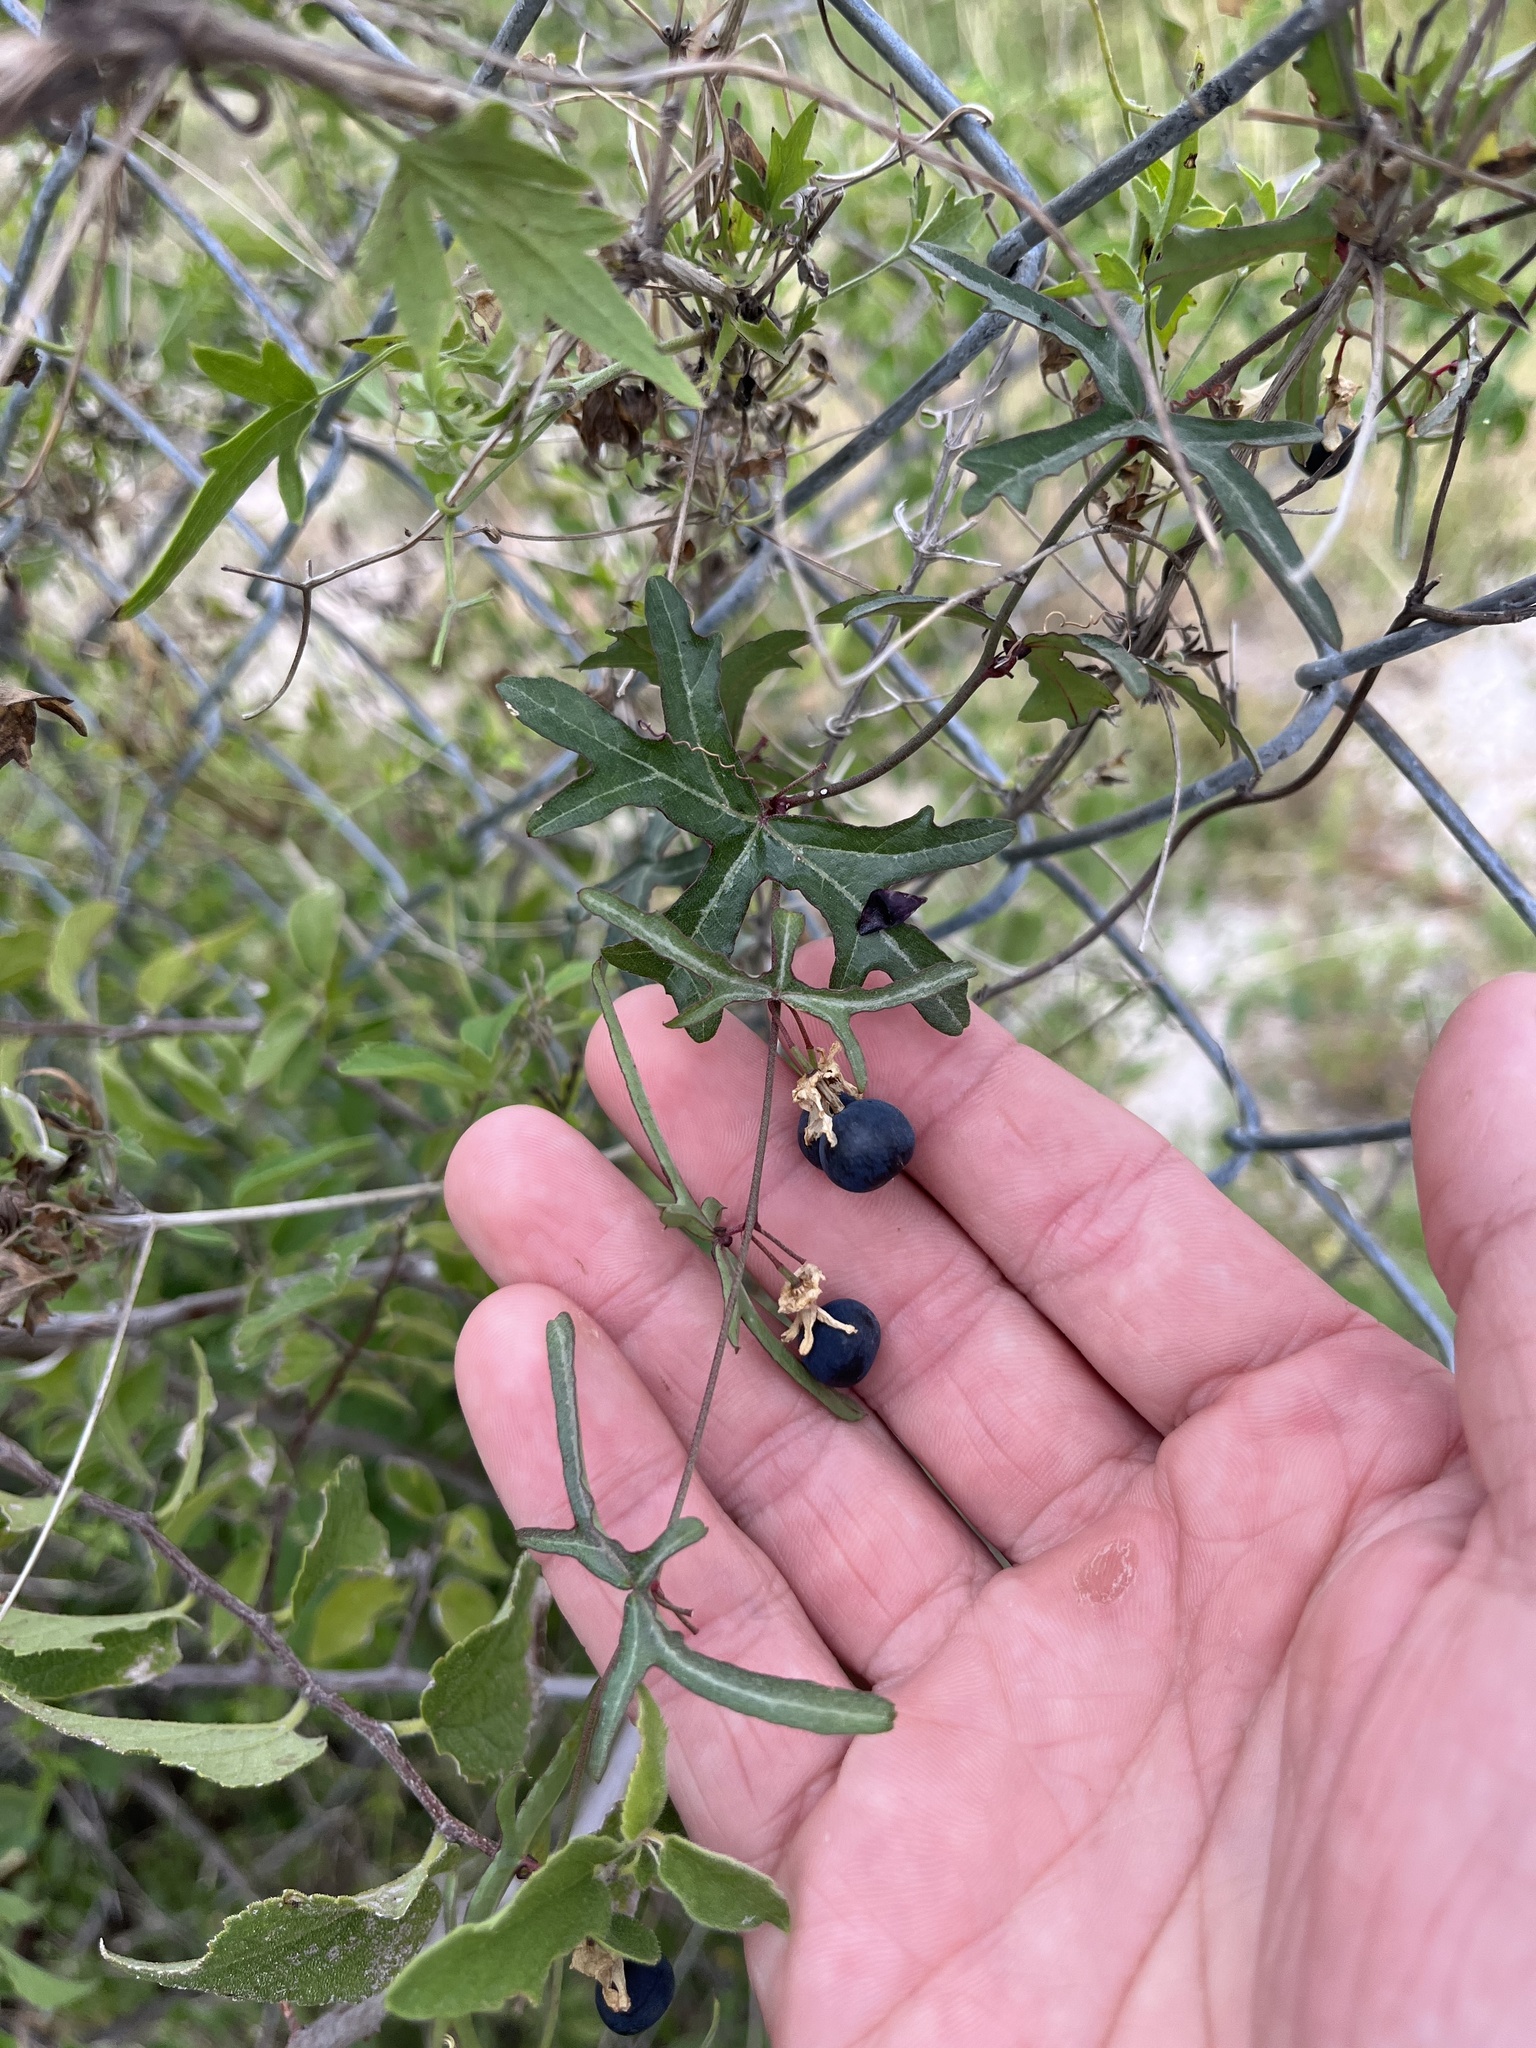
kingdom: Plantae
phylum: Tracheophyta
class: Magnoliopsida
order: Malpighiales
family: Passifloraceae
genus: Passiflora
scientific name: Passiflora tenuiloba
